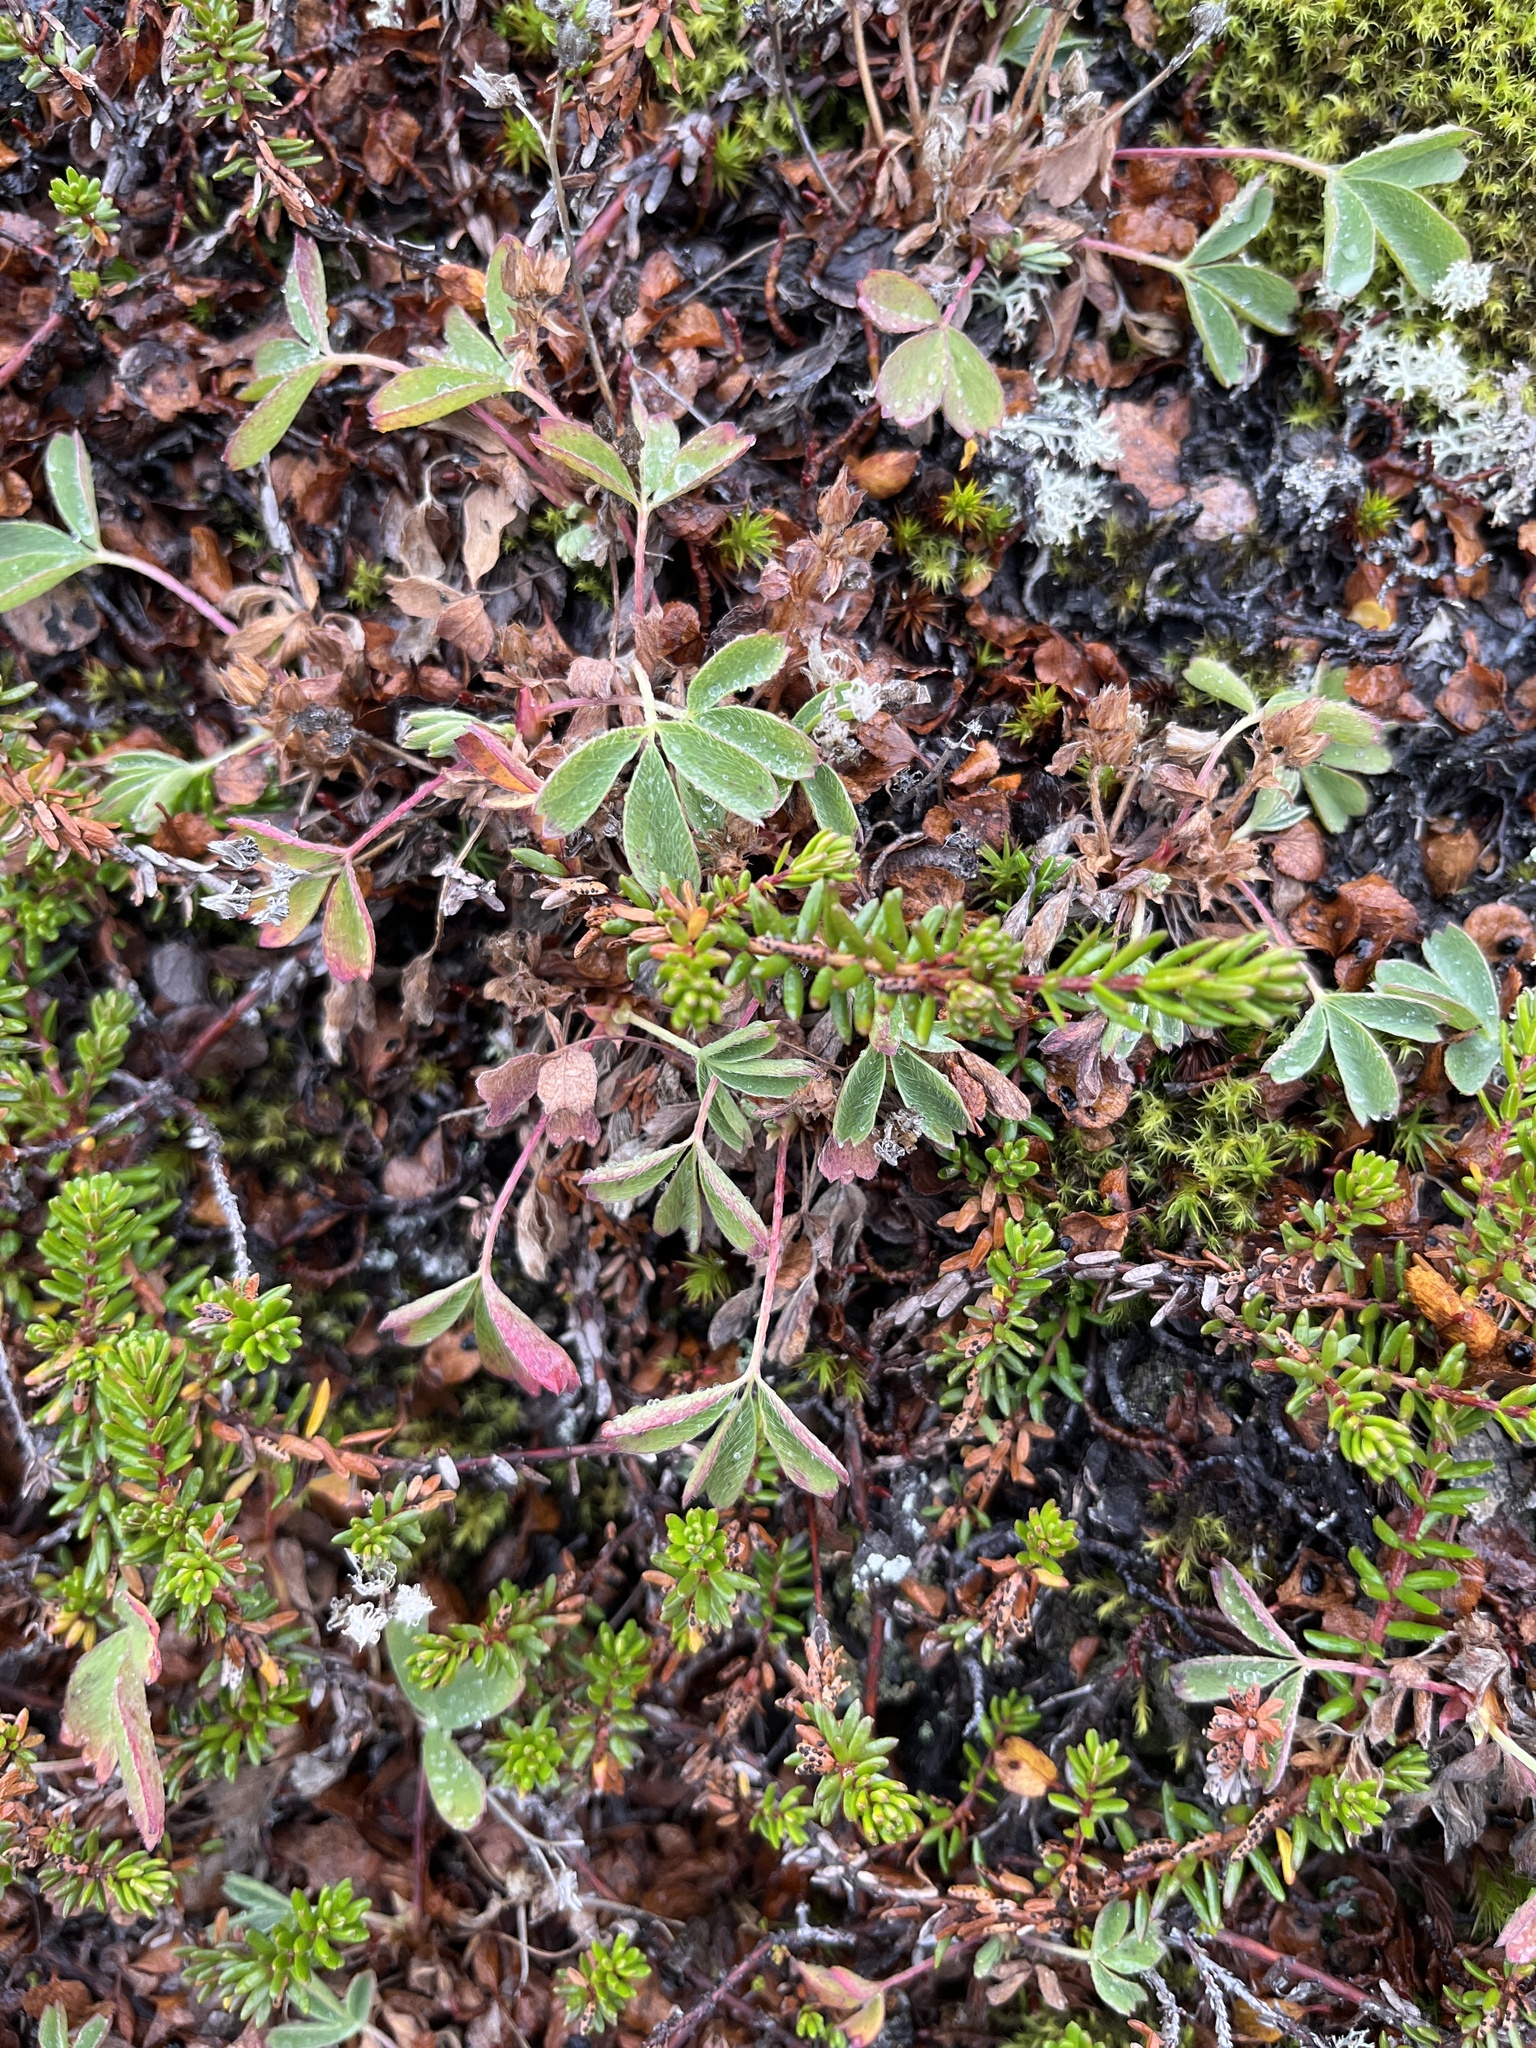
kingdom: Plantae
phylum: Tracheophyta
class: Magnoliopsida
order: Rosales
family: Rosaceae
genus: Sibbaldia
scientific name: Sibbaldia procumbens
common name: Creeping sibbaldia
